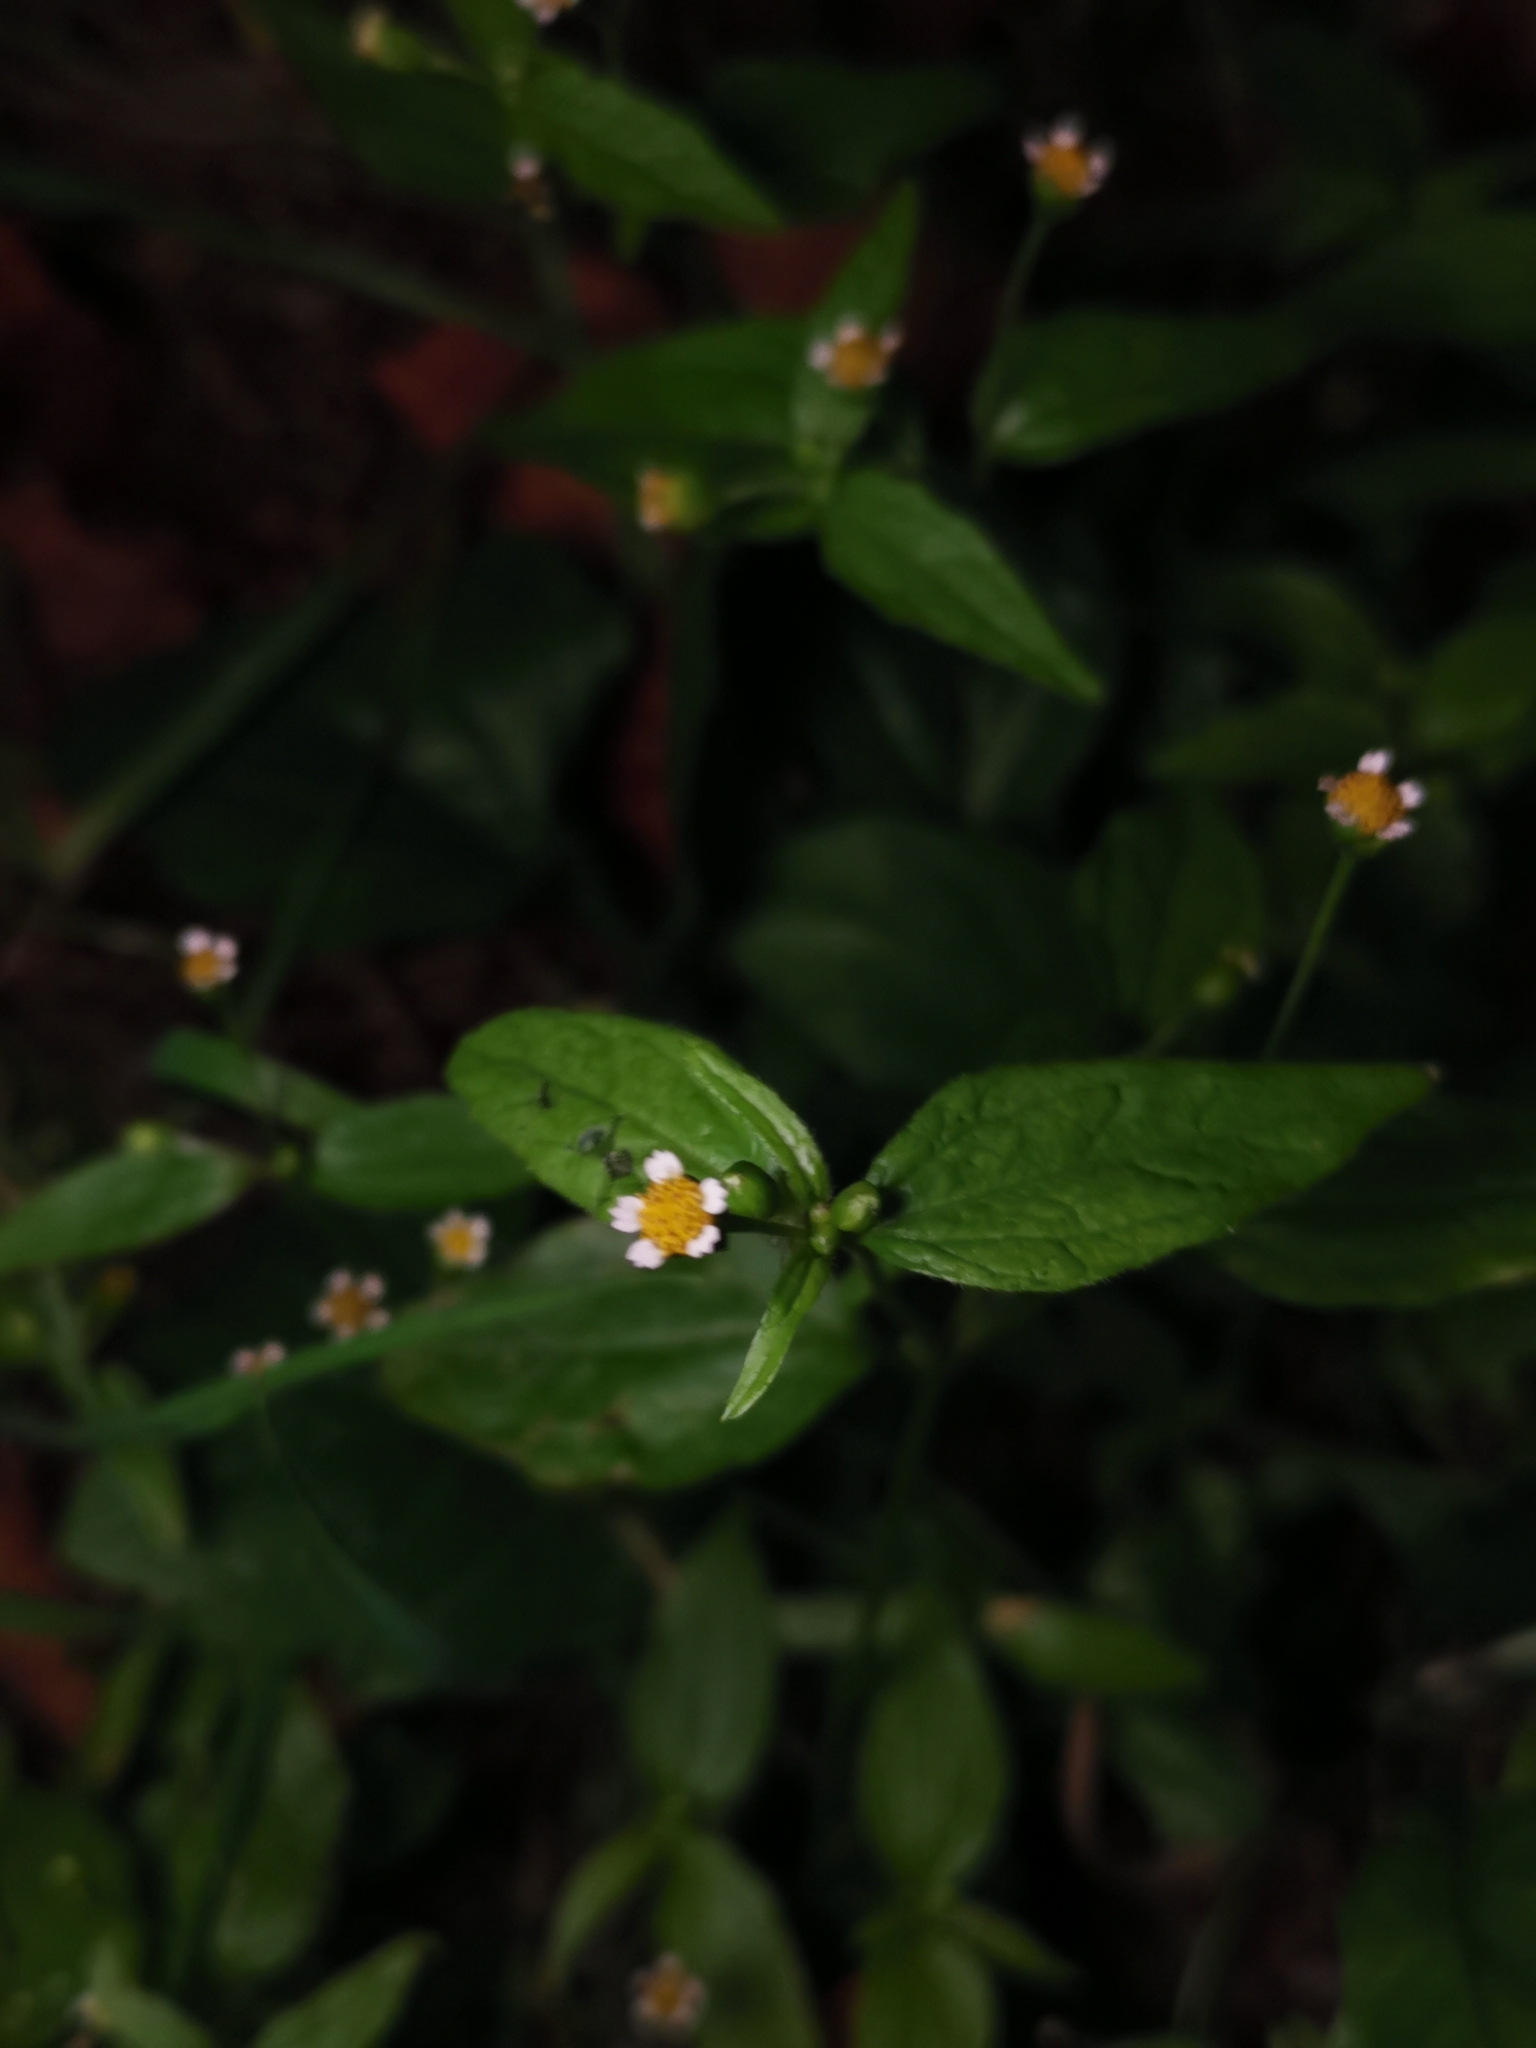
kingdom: Plantae
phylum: Tracheophyta
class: Magnoliopsida
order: Asterales
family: Asteraceae
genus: Galinsoga
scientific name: Galinsoga parviflora
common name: Gallant soldier
